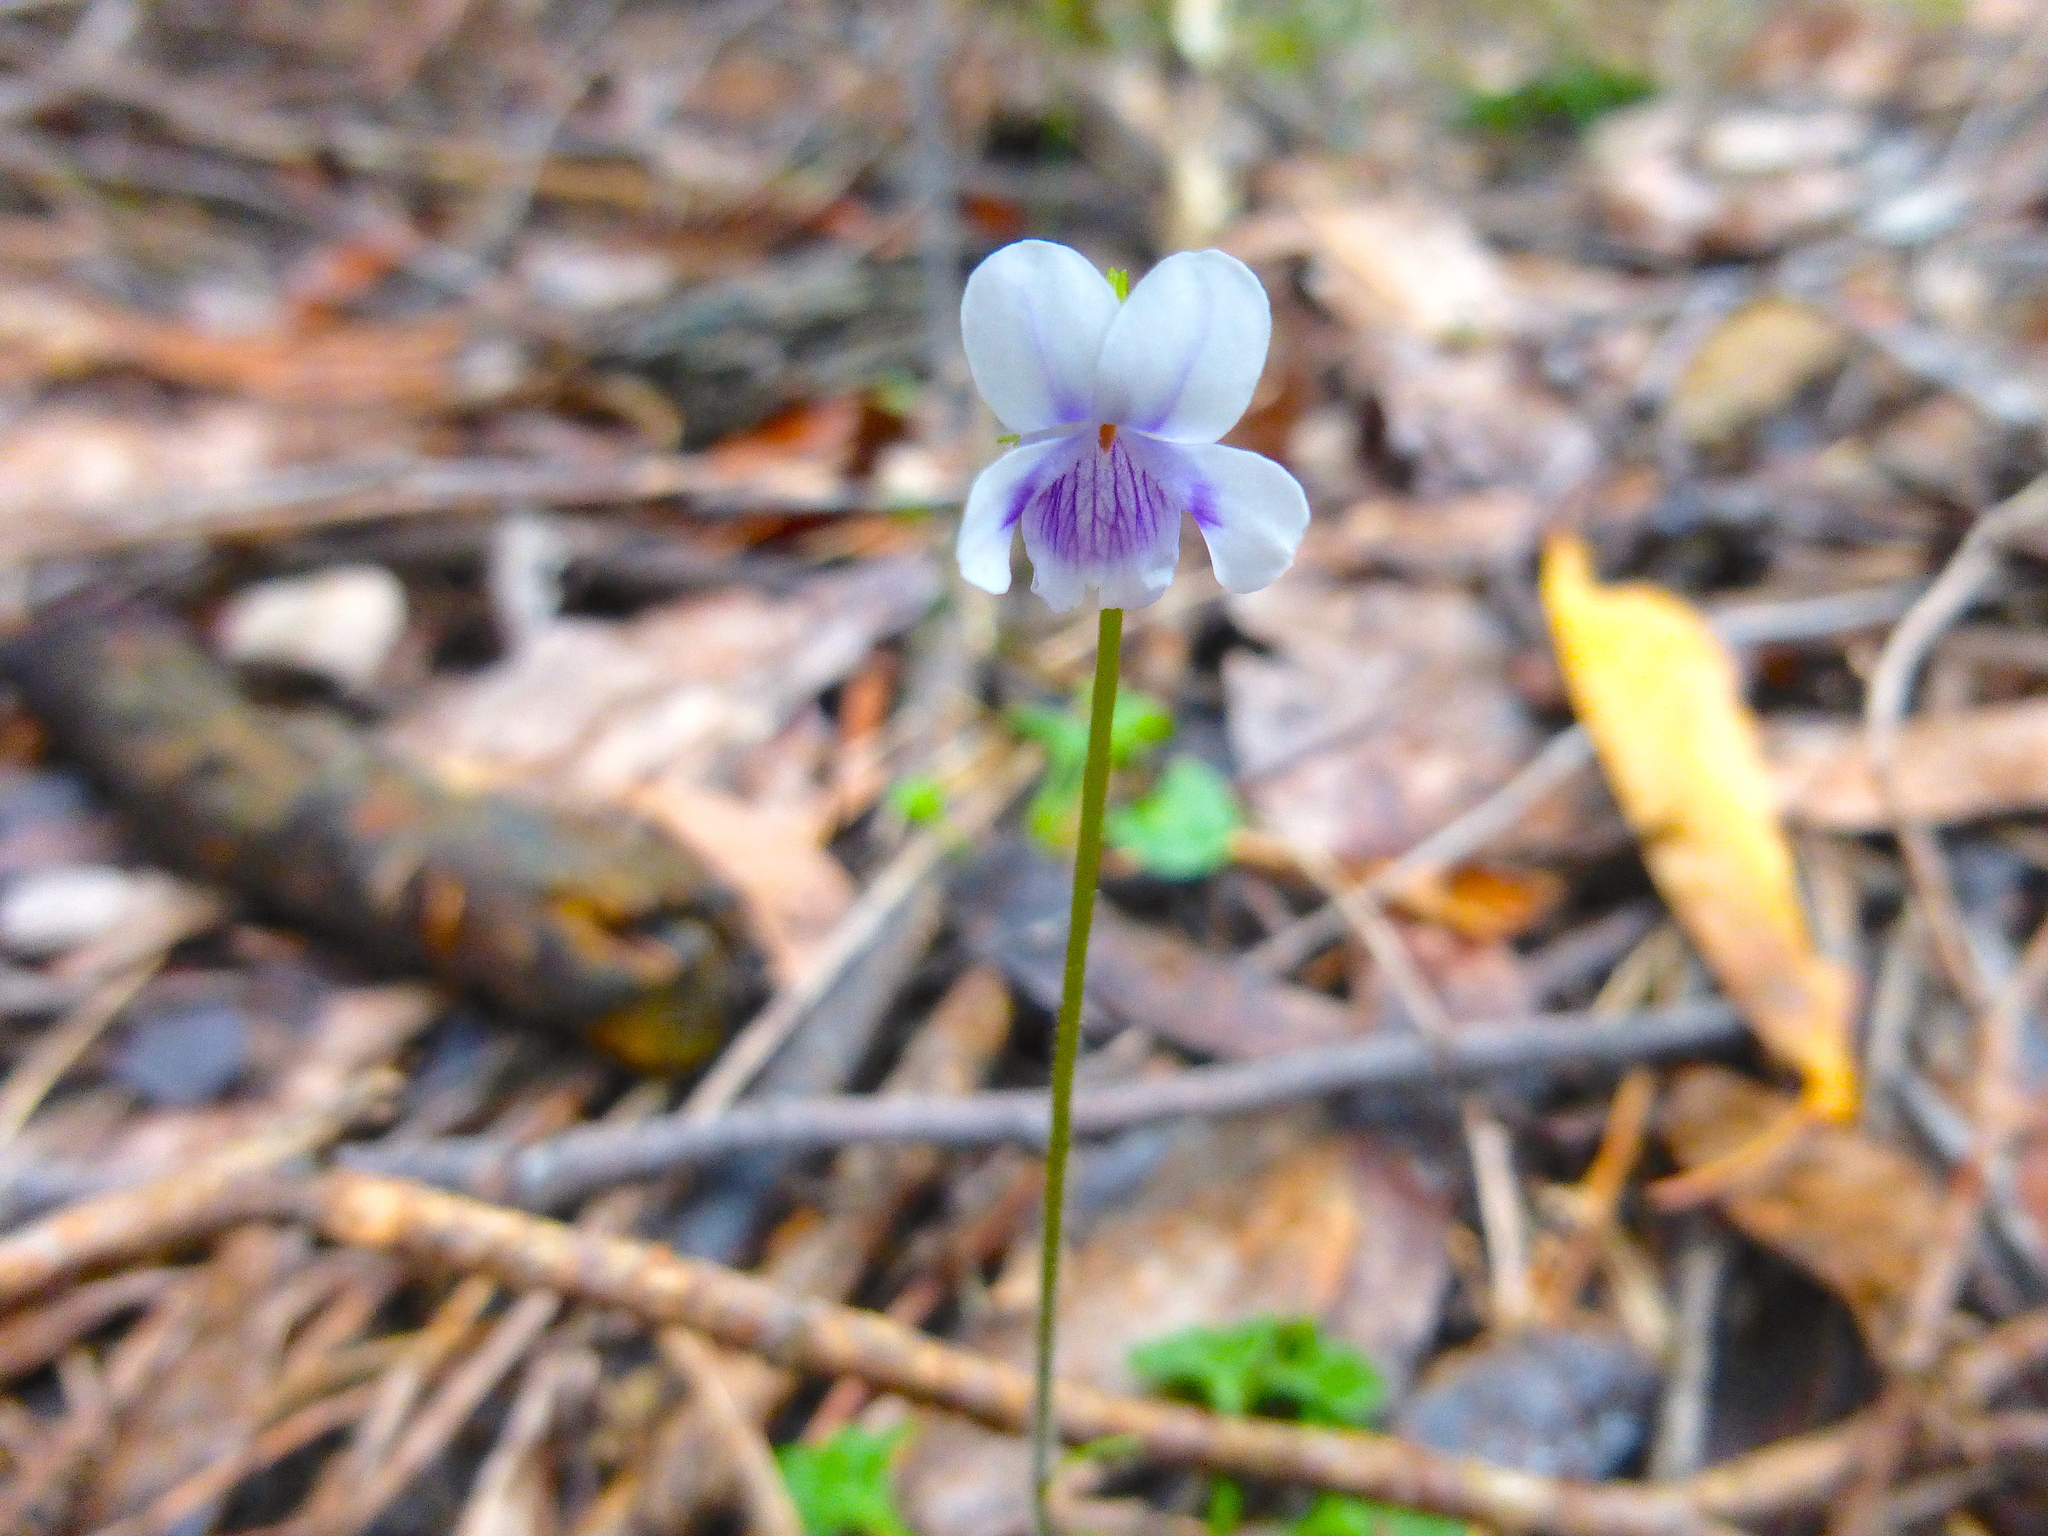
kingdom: Plantae
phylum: Tracheophyta
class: Magnoliopsida
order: Malpighiales
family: Violaceae
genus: Viola
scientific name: Viola hederacea
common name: Australian violet
